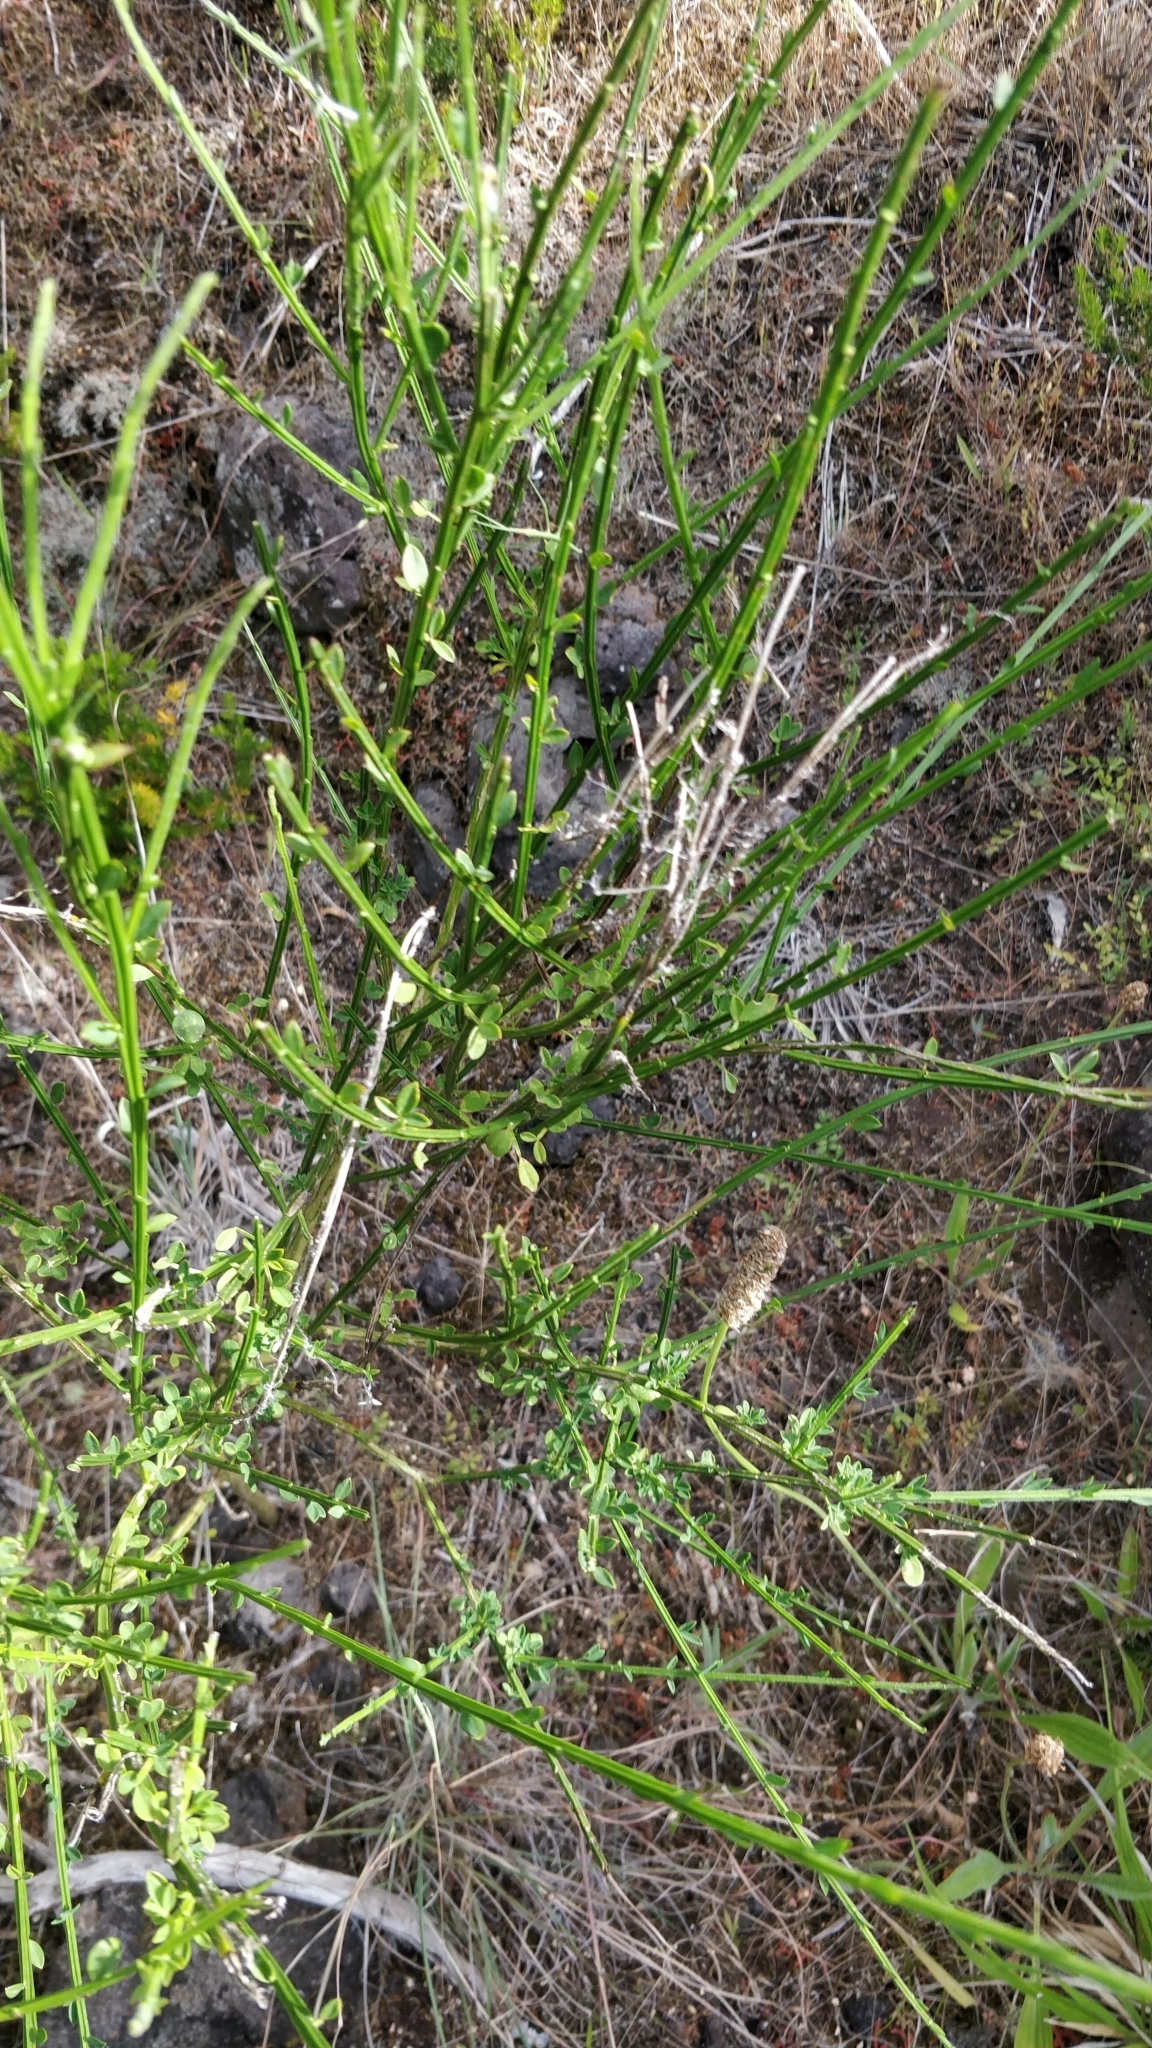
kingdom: Plantae
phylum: Tracheophyta
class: Magnoliopsida
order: Fabales
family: Fabaceae
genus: Cytisus
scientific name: Cytisus scoparius
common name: Scotch broom
